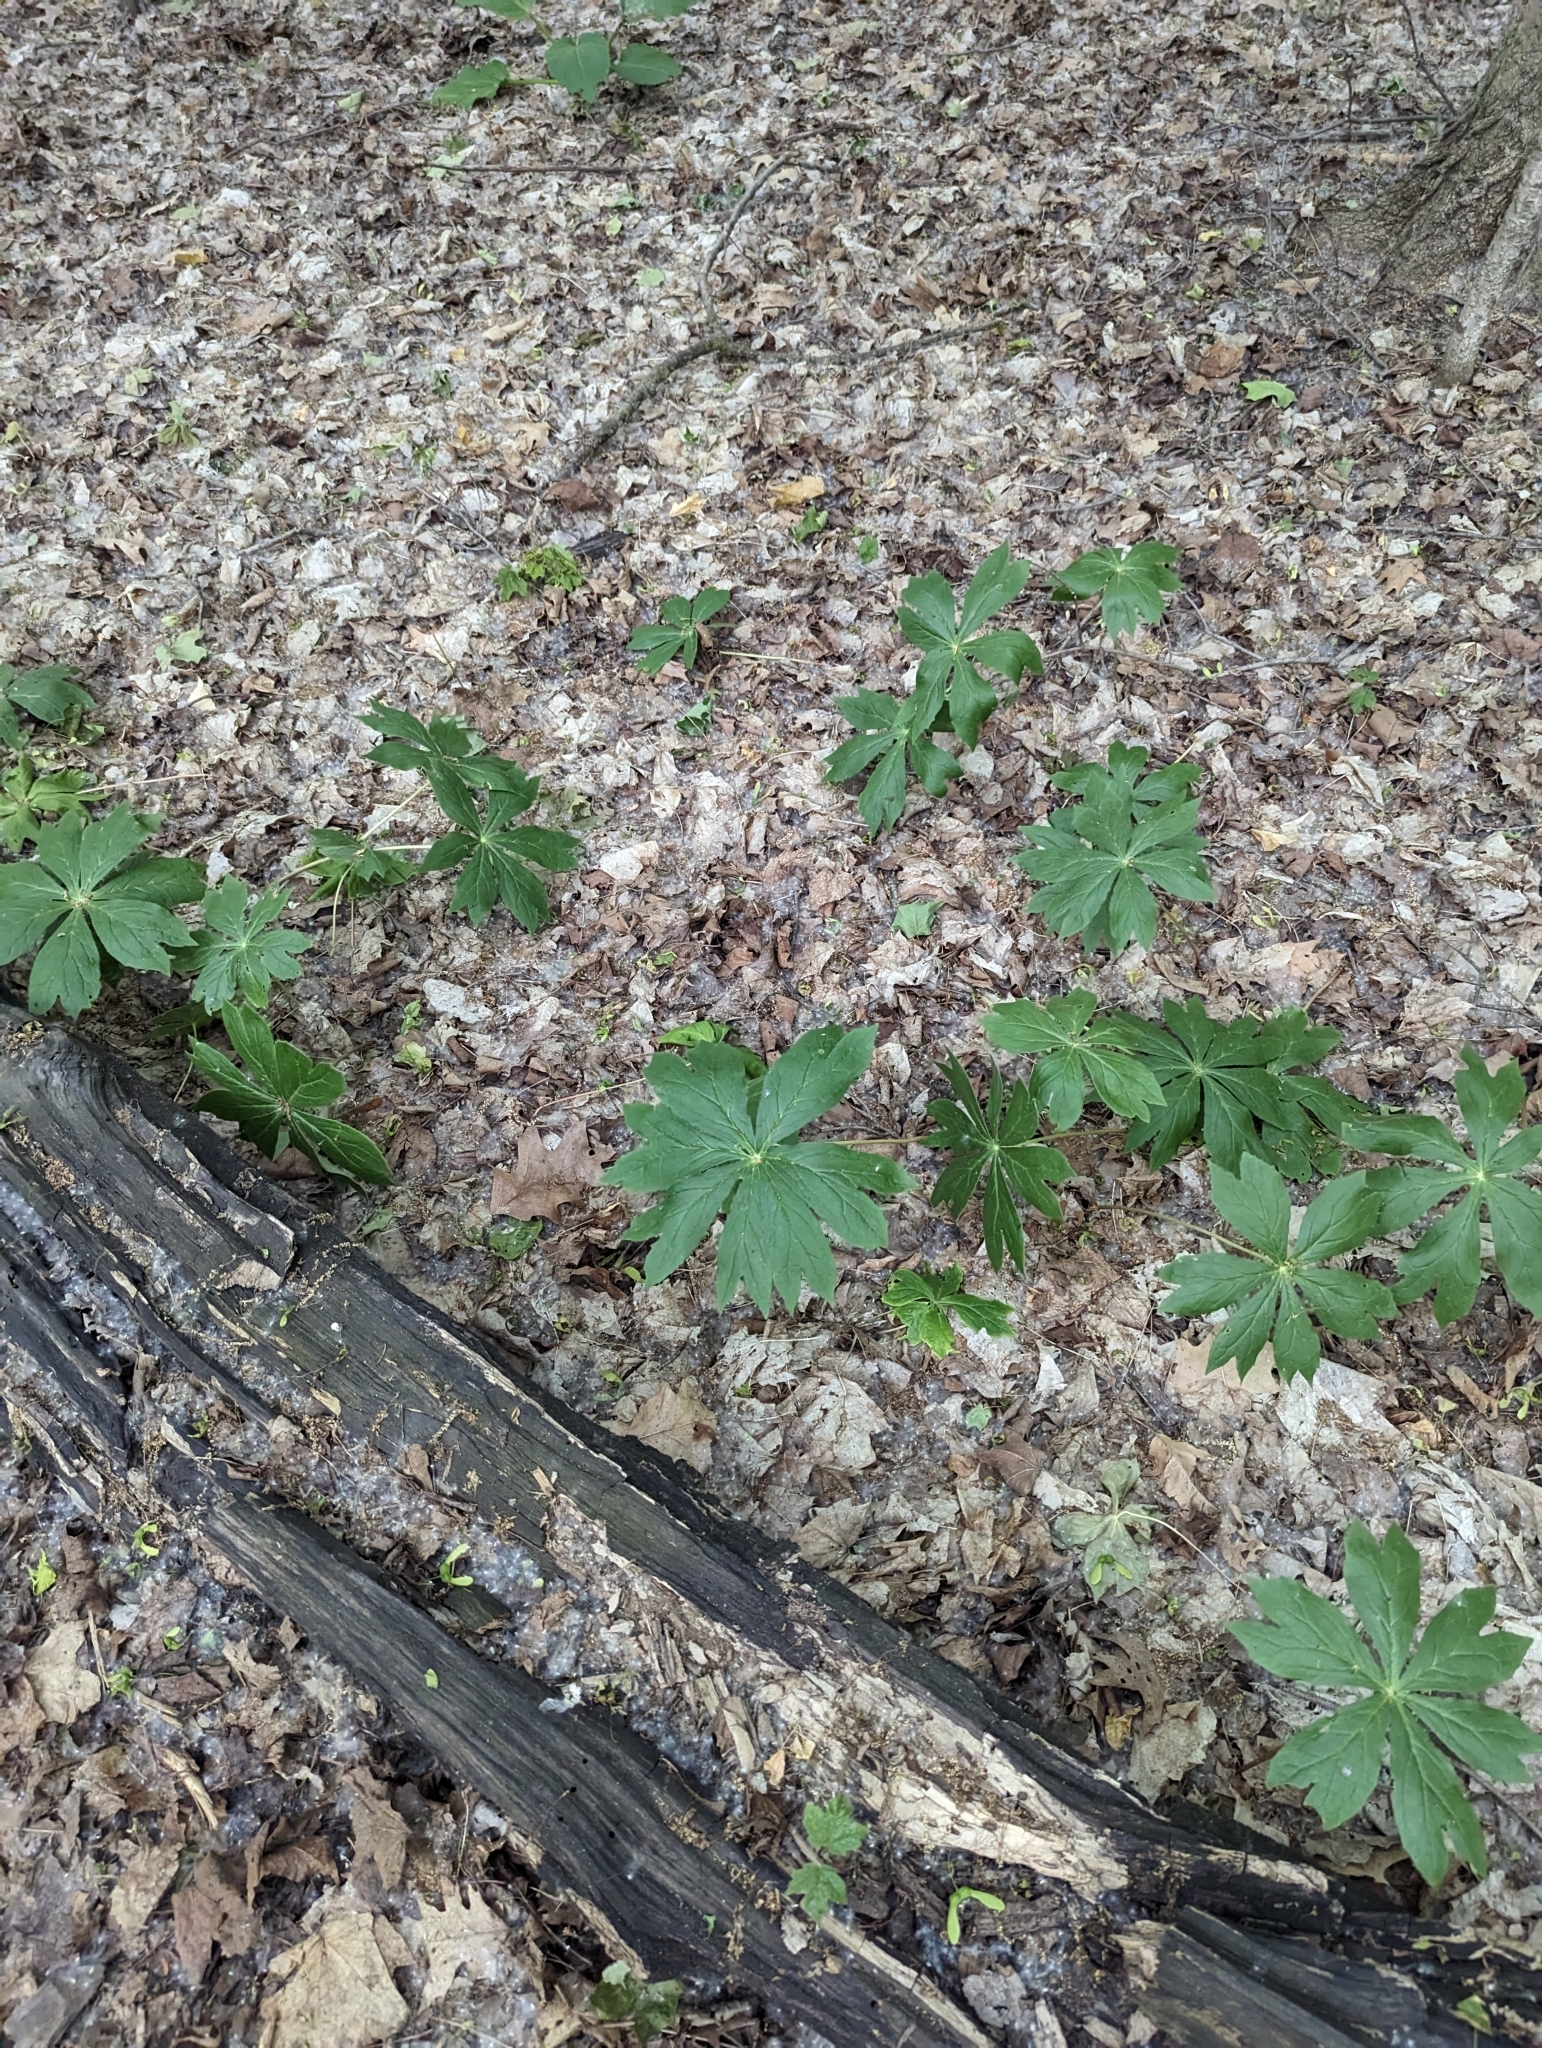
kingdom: Plantae
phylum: Tracheophyta
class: Magnoliopsida
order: Ranunculales
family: Berberidaceae
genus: Podophyllum
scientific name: Podophyllum peltatum
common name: Wild mandrake
